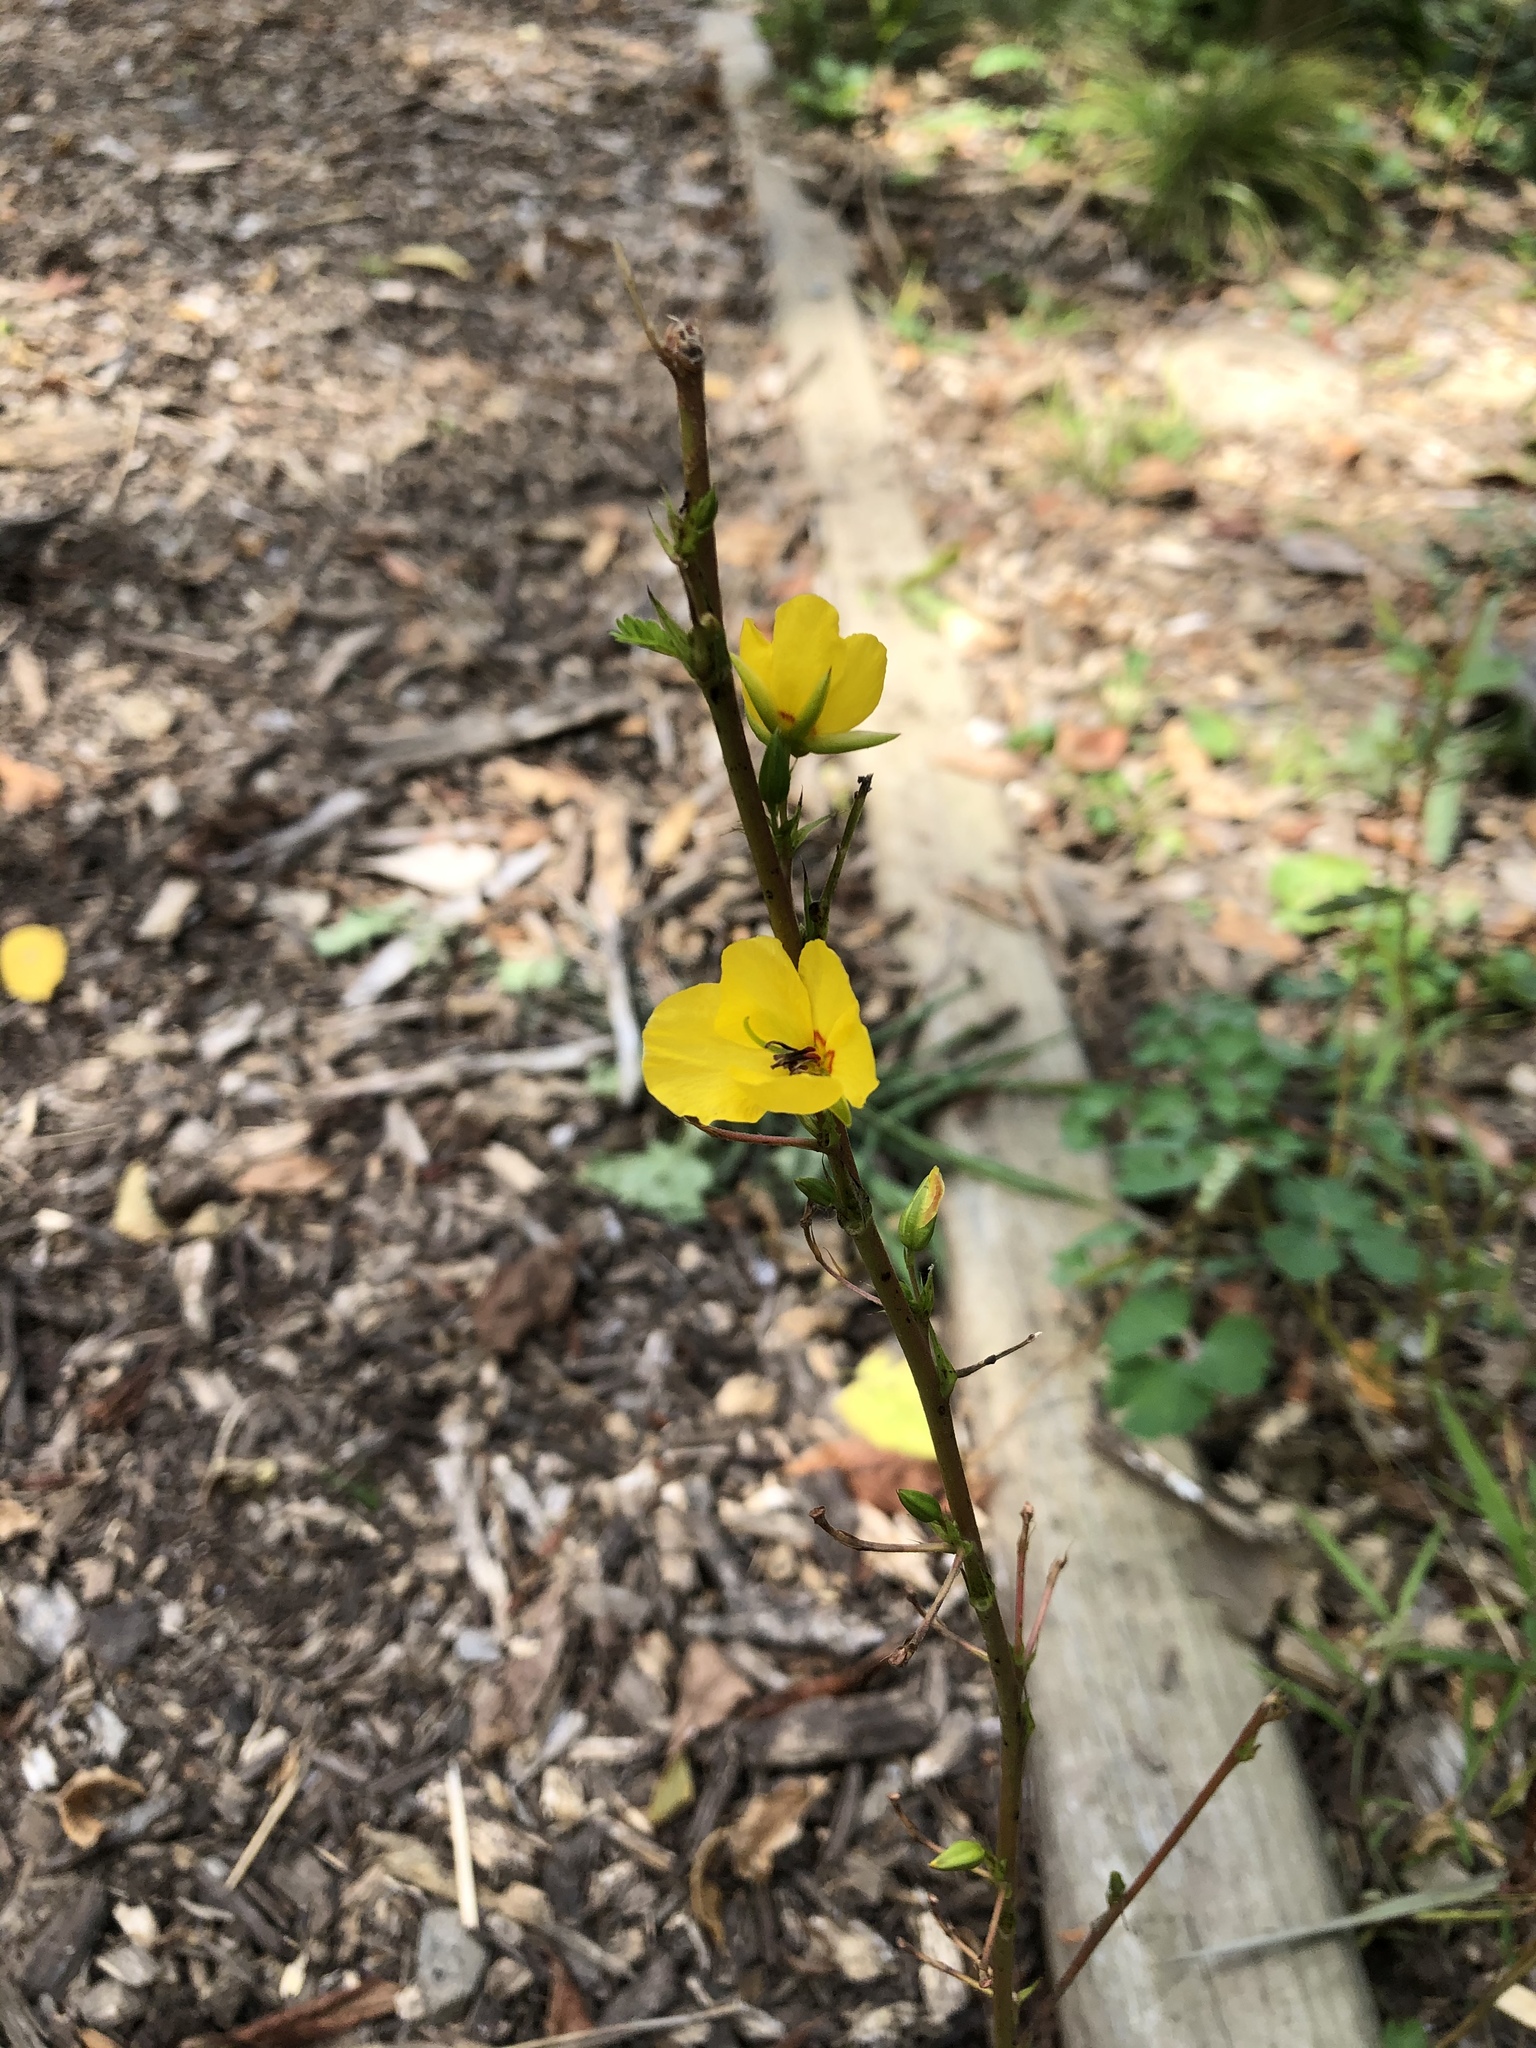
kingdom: Plantae
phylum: Tracheophyta
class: Magnoliopsida
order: Fabales
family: Fabaceae
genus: Chamaecrista
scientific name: Chamaecrista fasciculata
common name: Golden cassia
